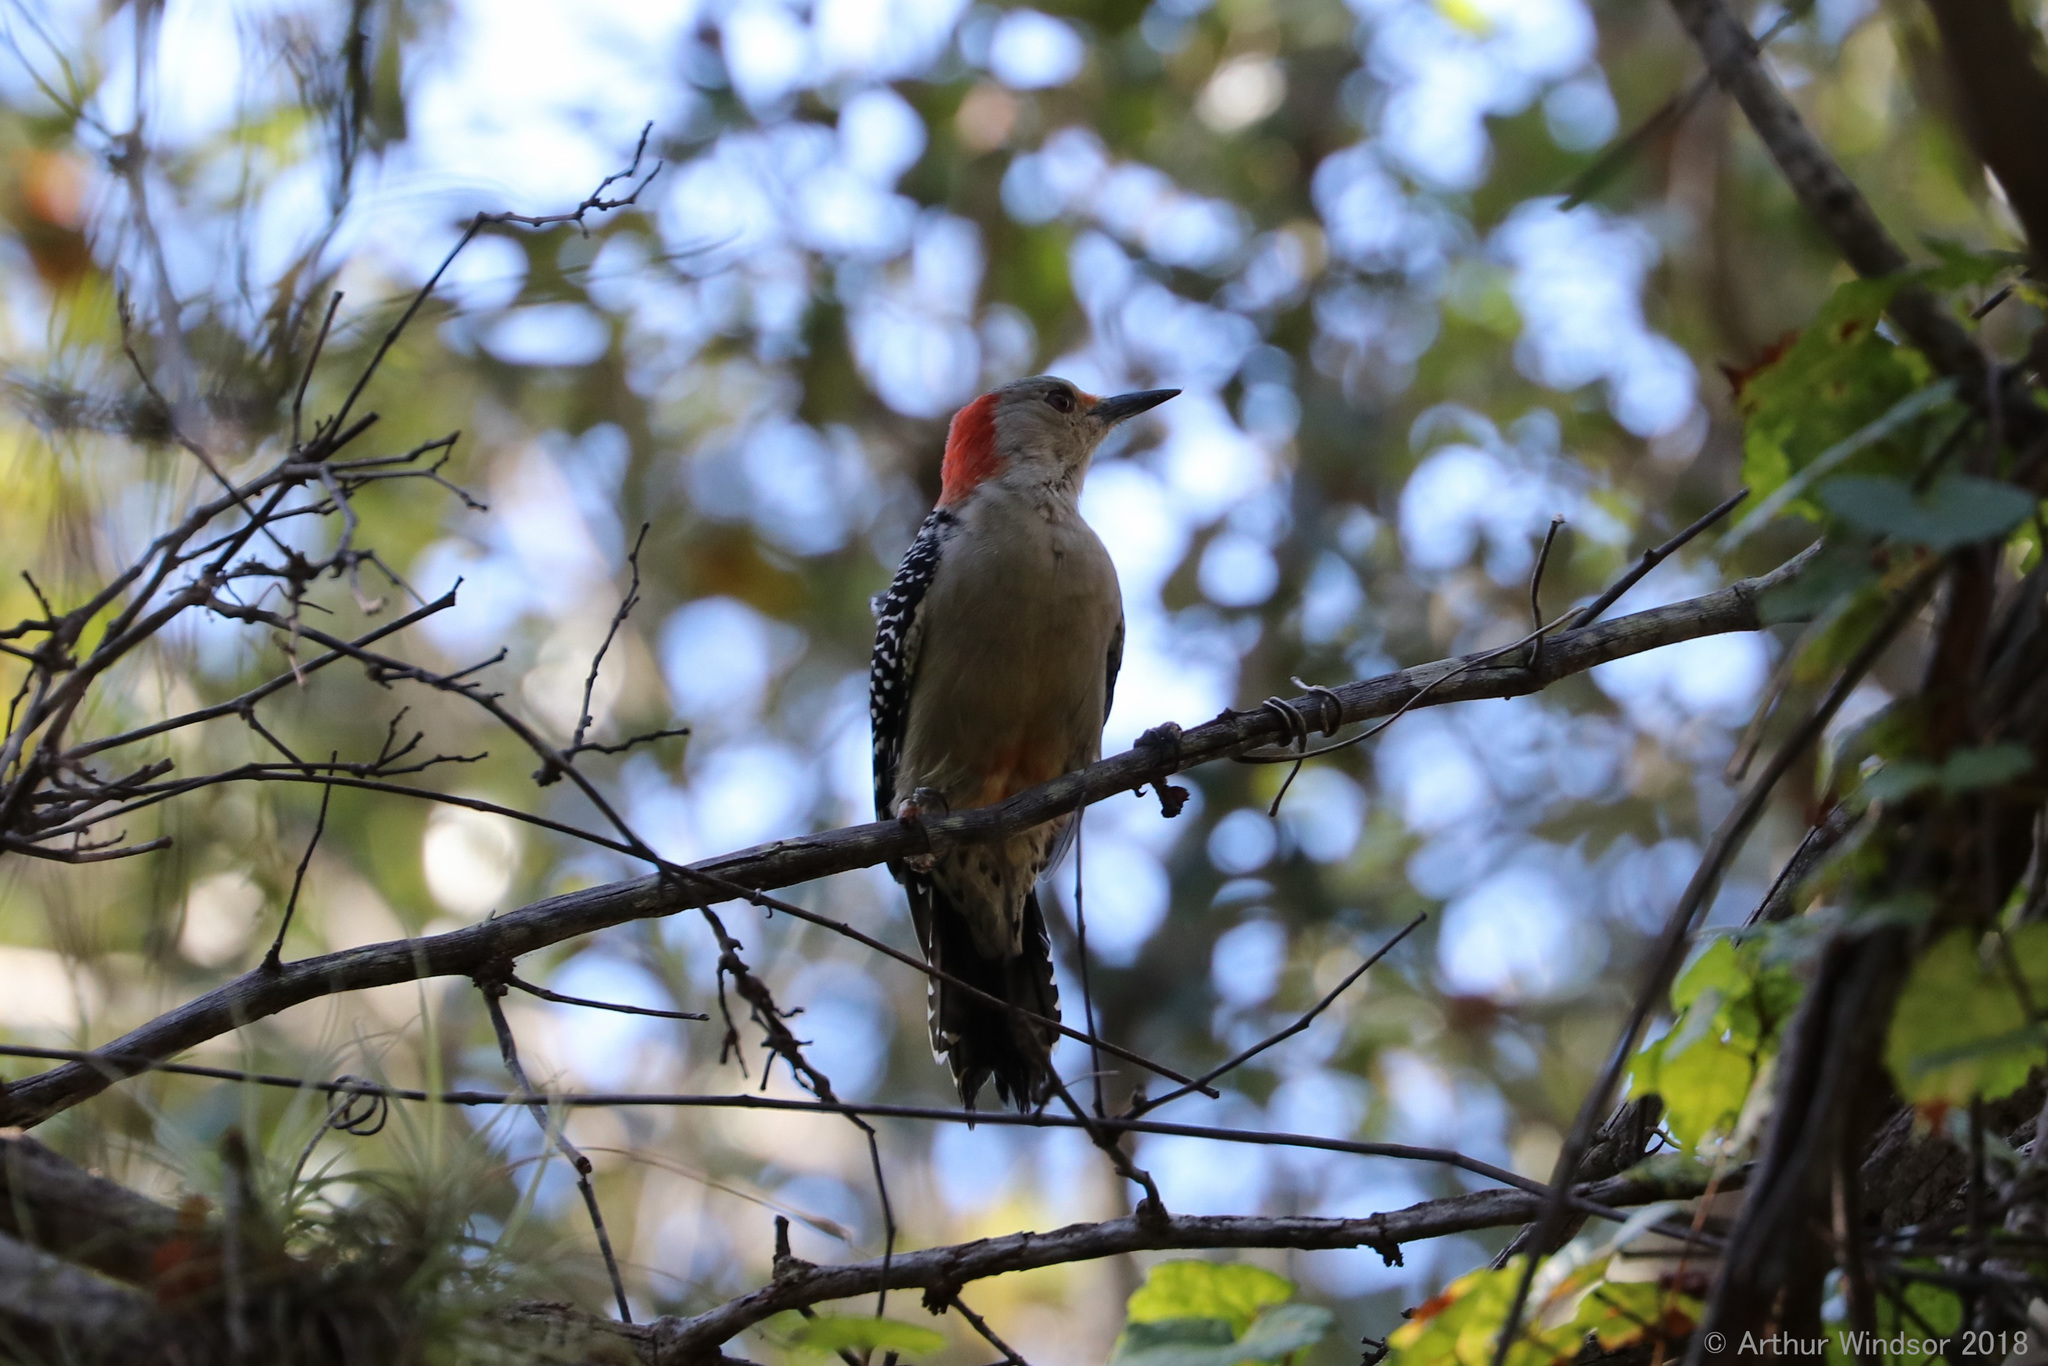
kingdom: Animalia
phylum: Chordata
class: Aves
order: Piciformes
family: Picidae
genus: Melanerpes
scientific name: Melanerpes carolinus
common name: Red-bellied woodpecker
